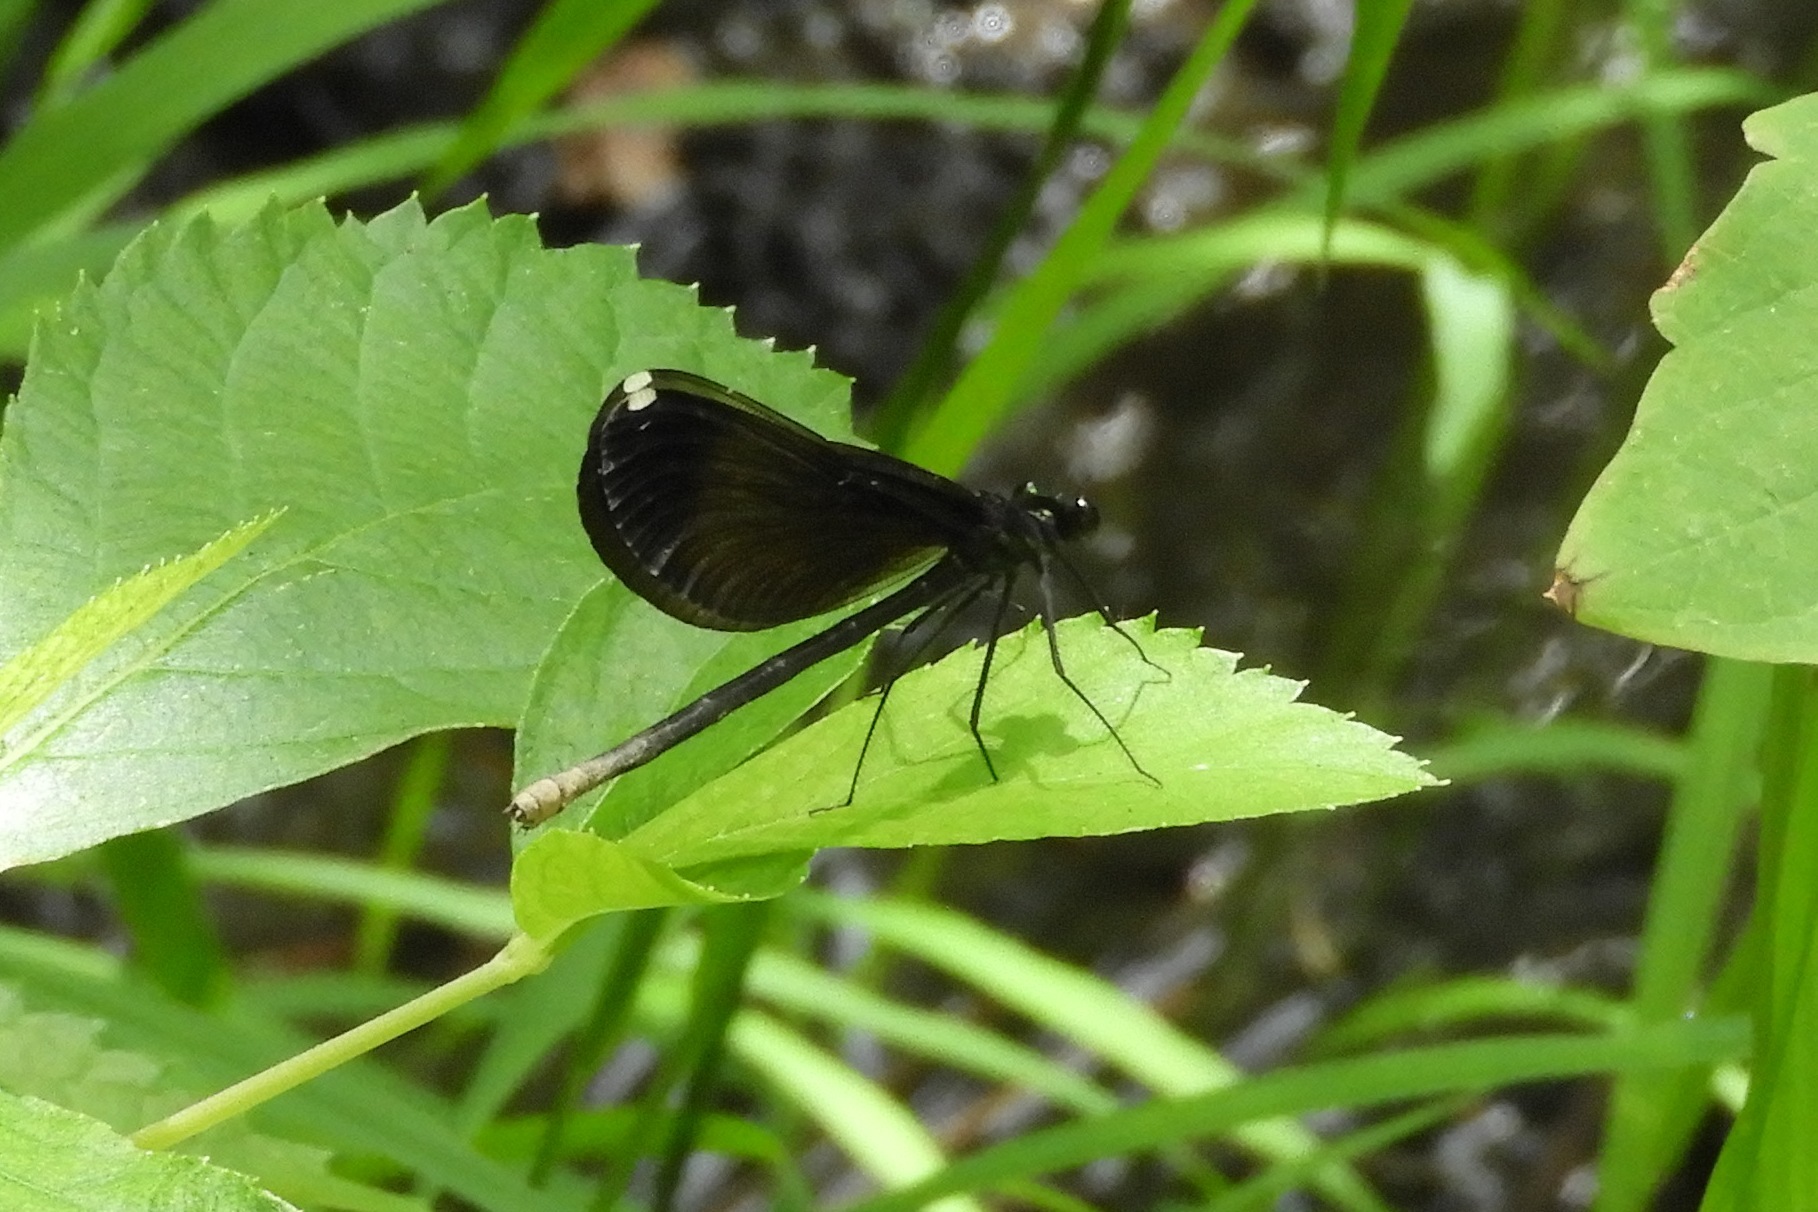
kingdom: Animalia
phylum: Arthropoda
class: Insecta
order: Odonata
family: Calopterygidae
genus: Calopteryx
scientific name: Calopteryx maculata
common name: Ebony jewelwing
